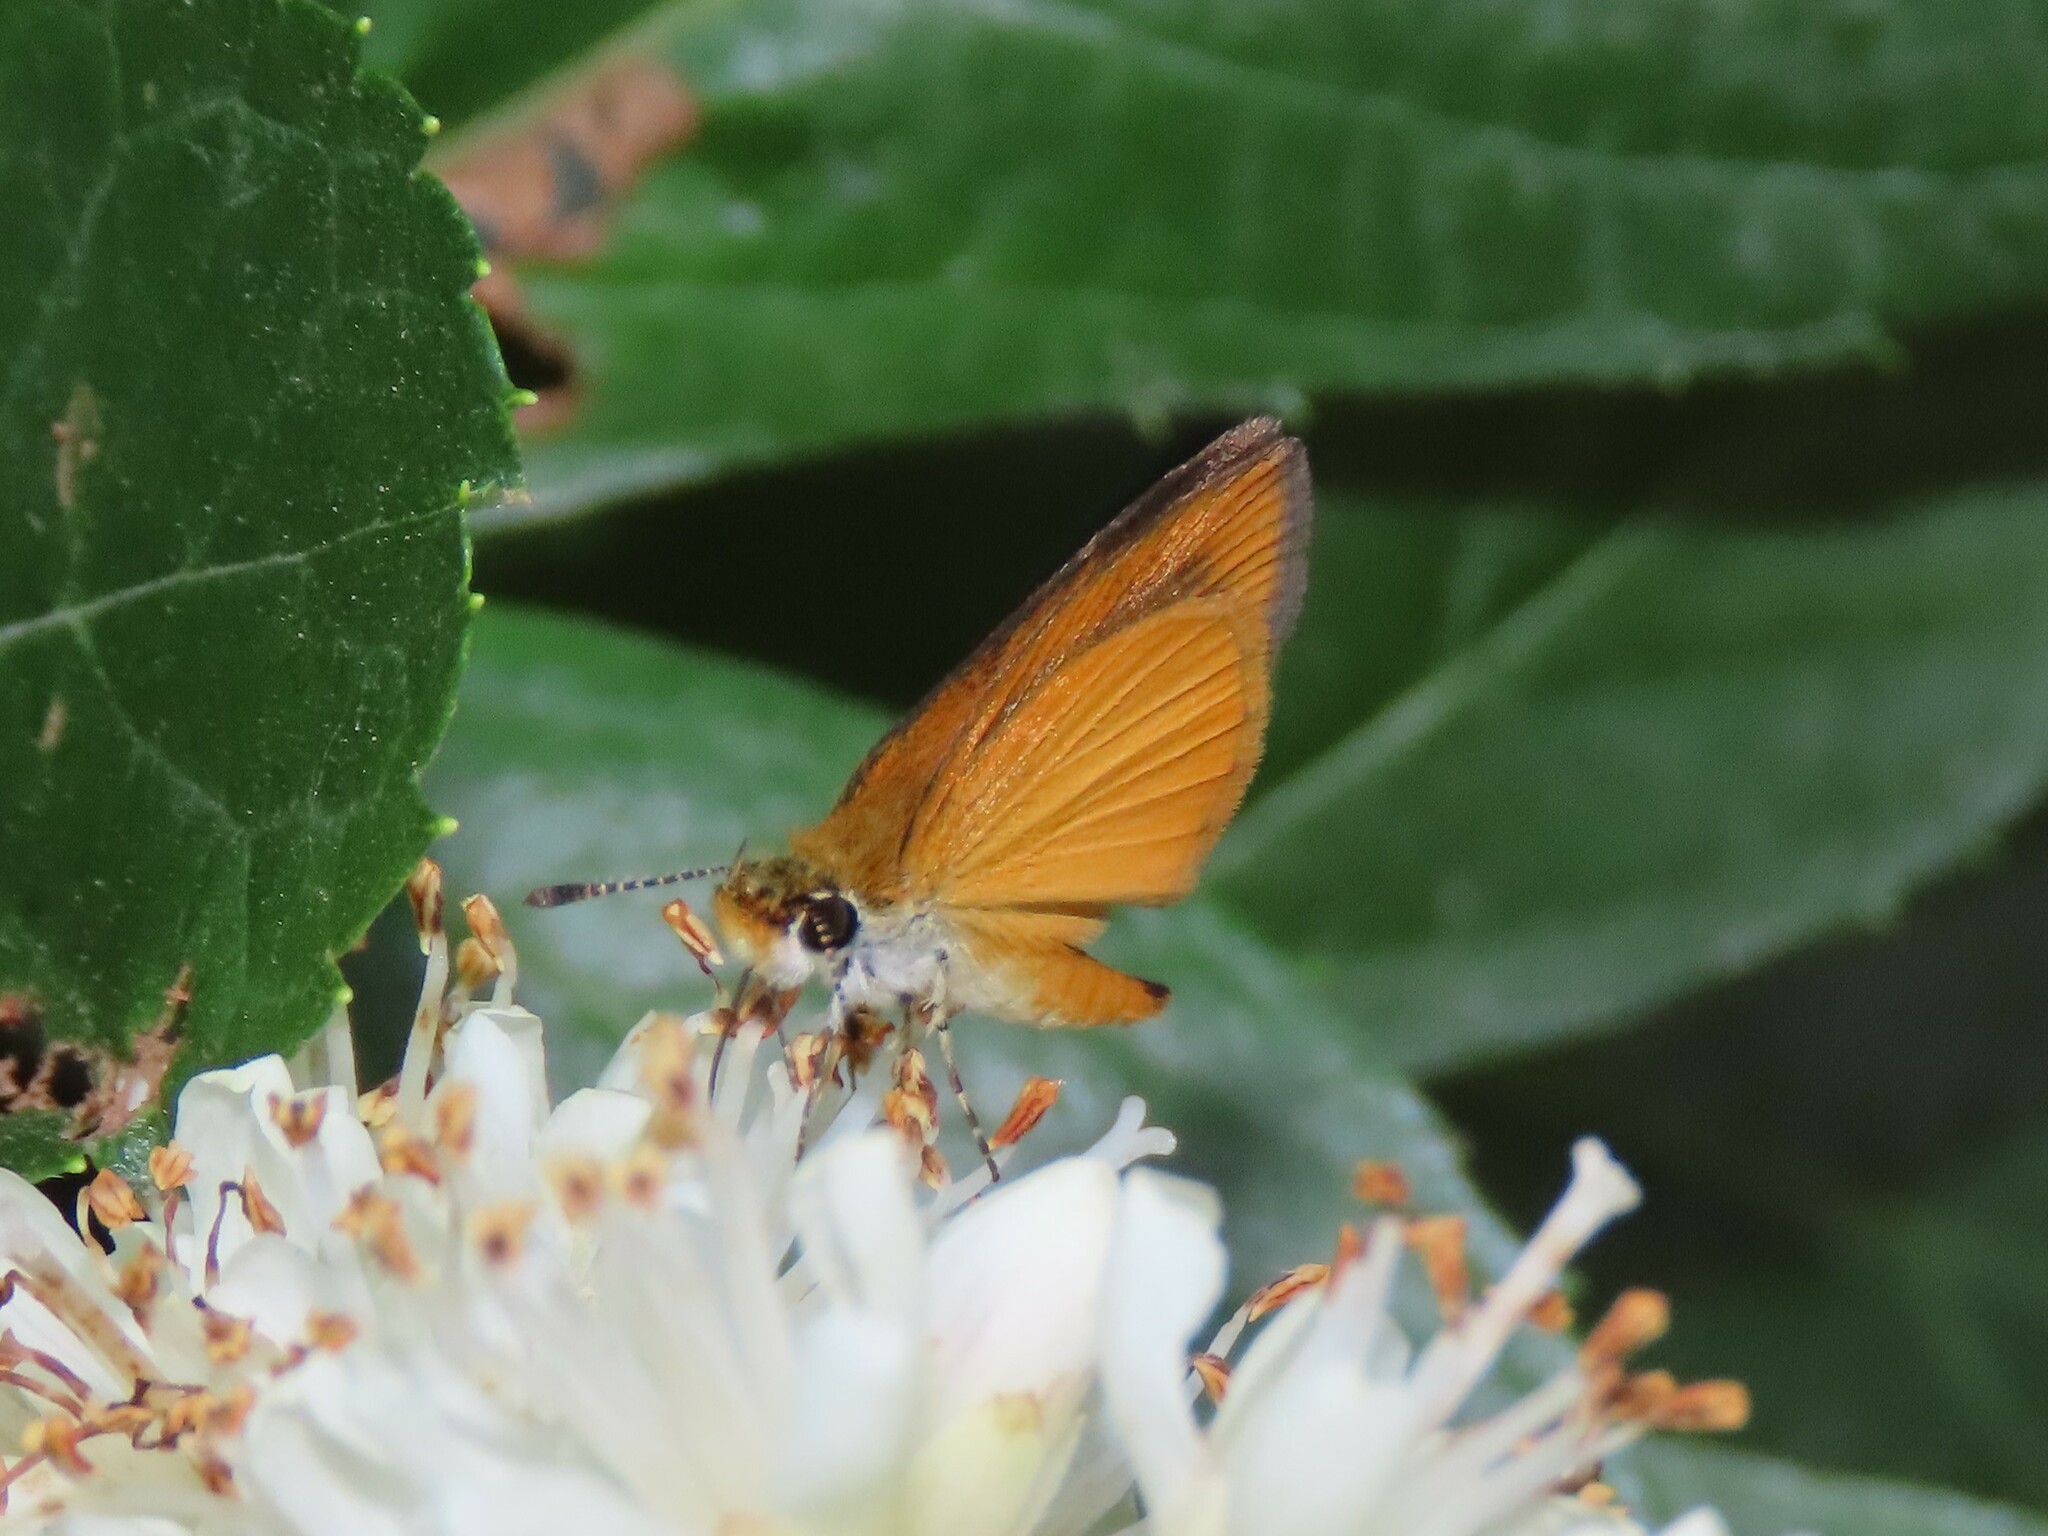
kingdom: Animalia
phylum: Arthropoda
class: Insecta
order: Lepidoptera
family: Hesperiidae
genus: Ancyloxypha
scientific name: Ancyloxypha numitor
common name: Least skipper
